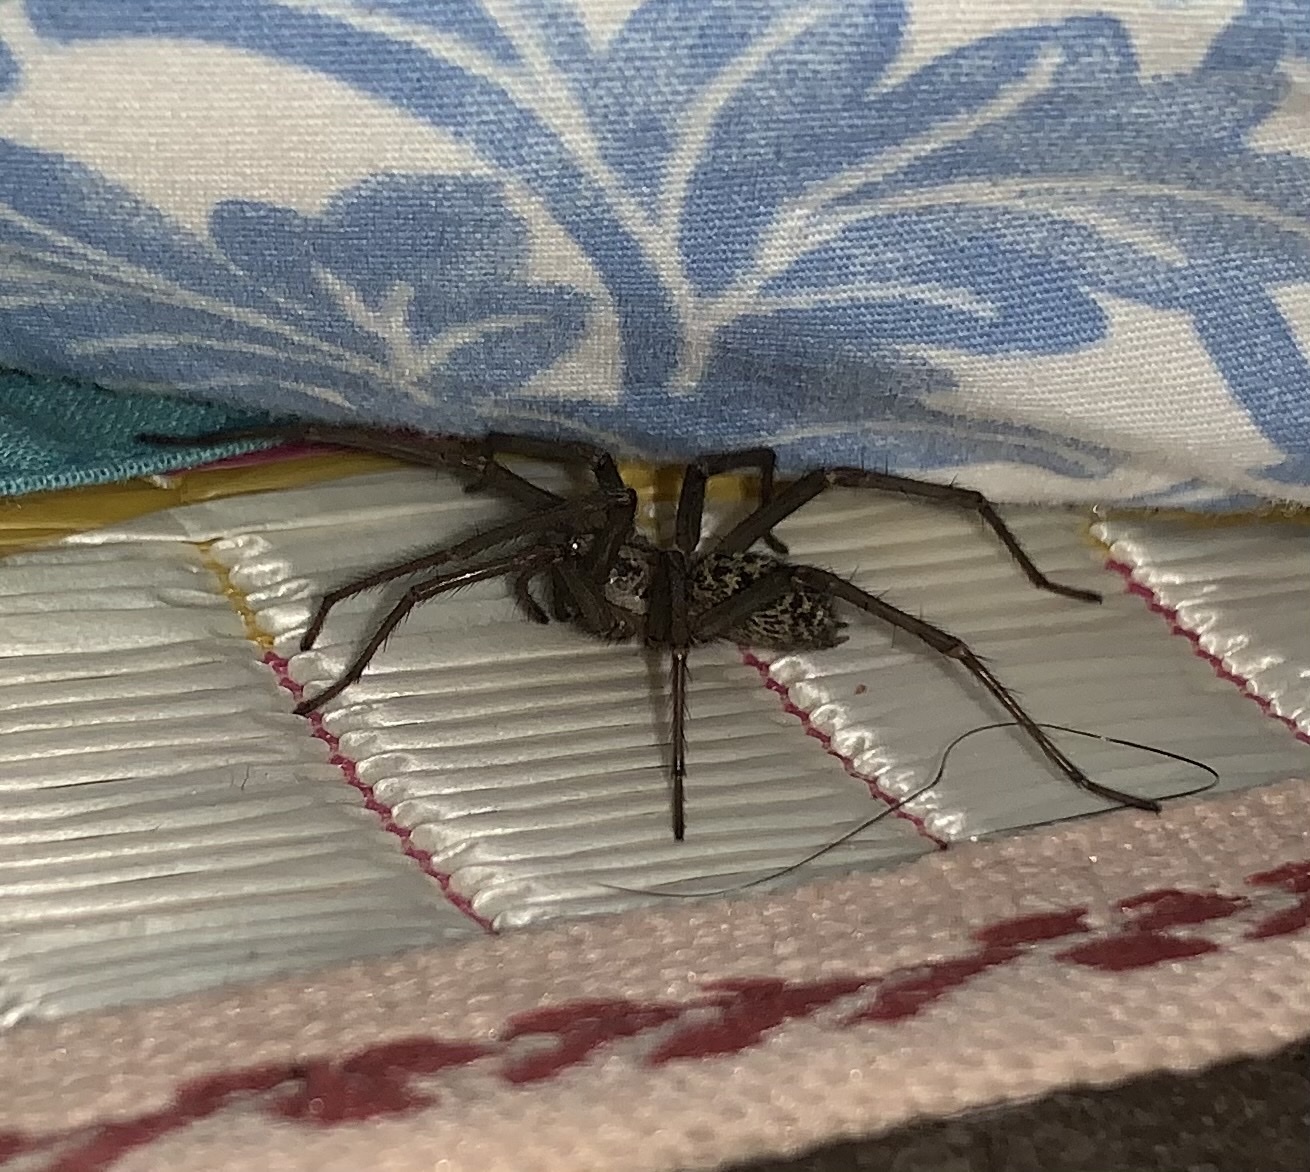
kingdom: Animalia
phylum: Arthropoda
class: Arachnida
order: Araneae
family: Agelenidae
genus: Eratigena
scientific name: Eratigena duellica
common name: Giant house spider
